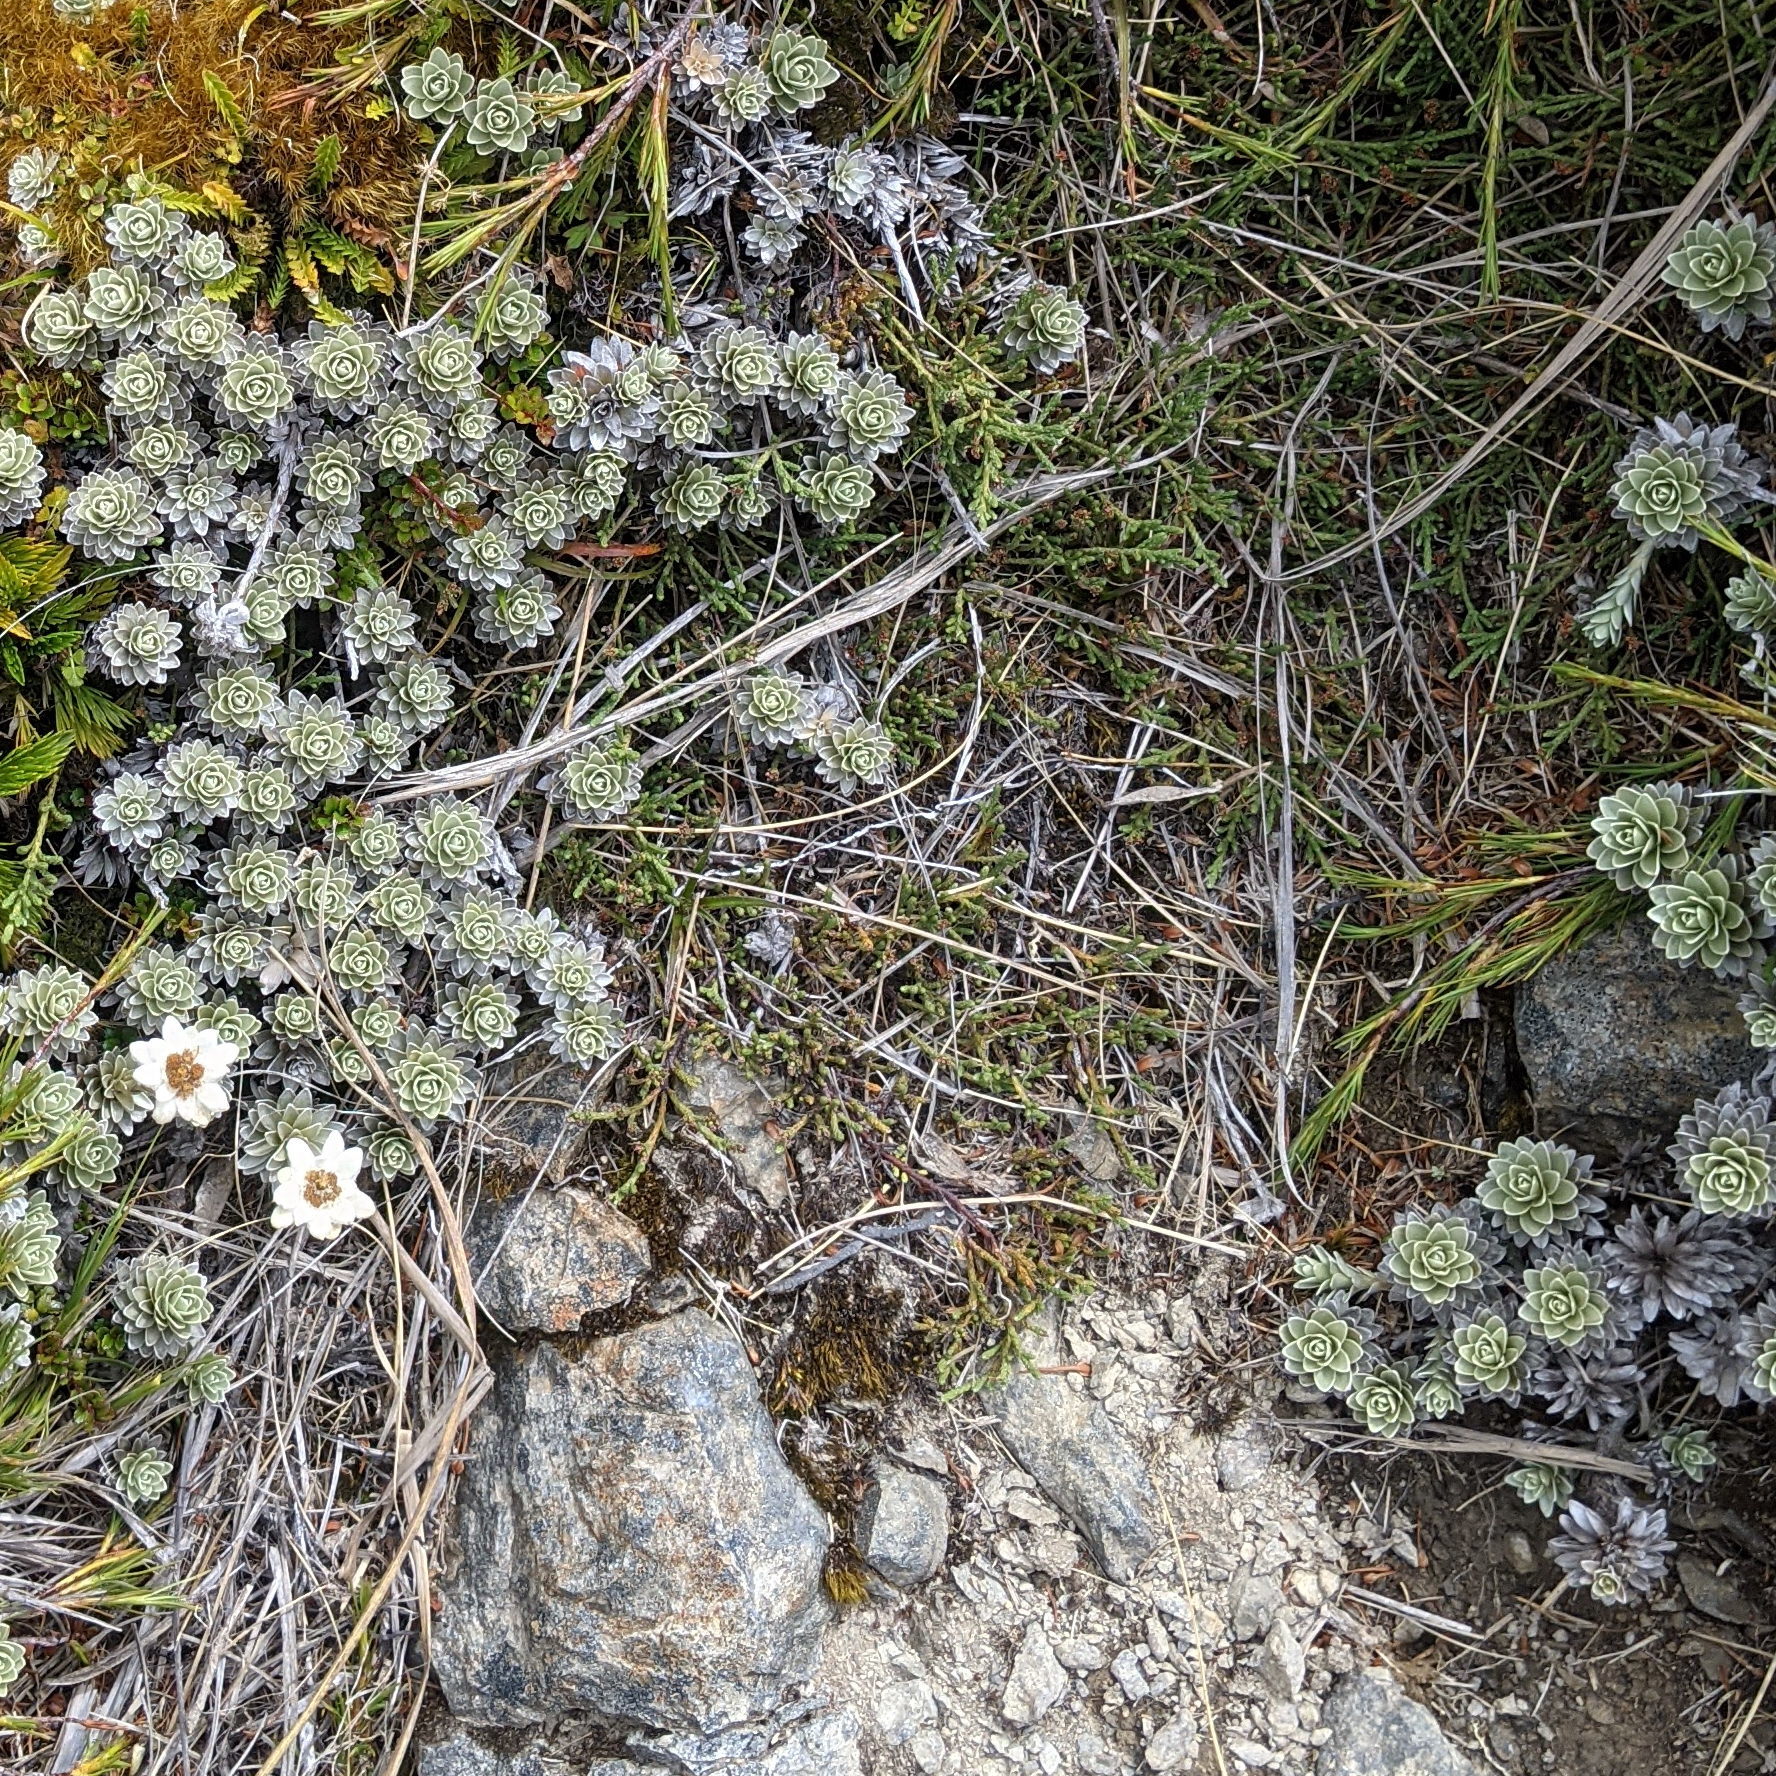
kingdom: Plantae
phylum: Tracheophyta
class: Magnoliopsida
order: Asterales
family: Asteraceae
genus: Leucogenes
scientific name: Leucogenes leontopodium
